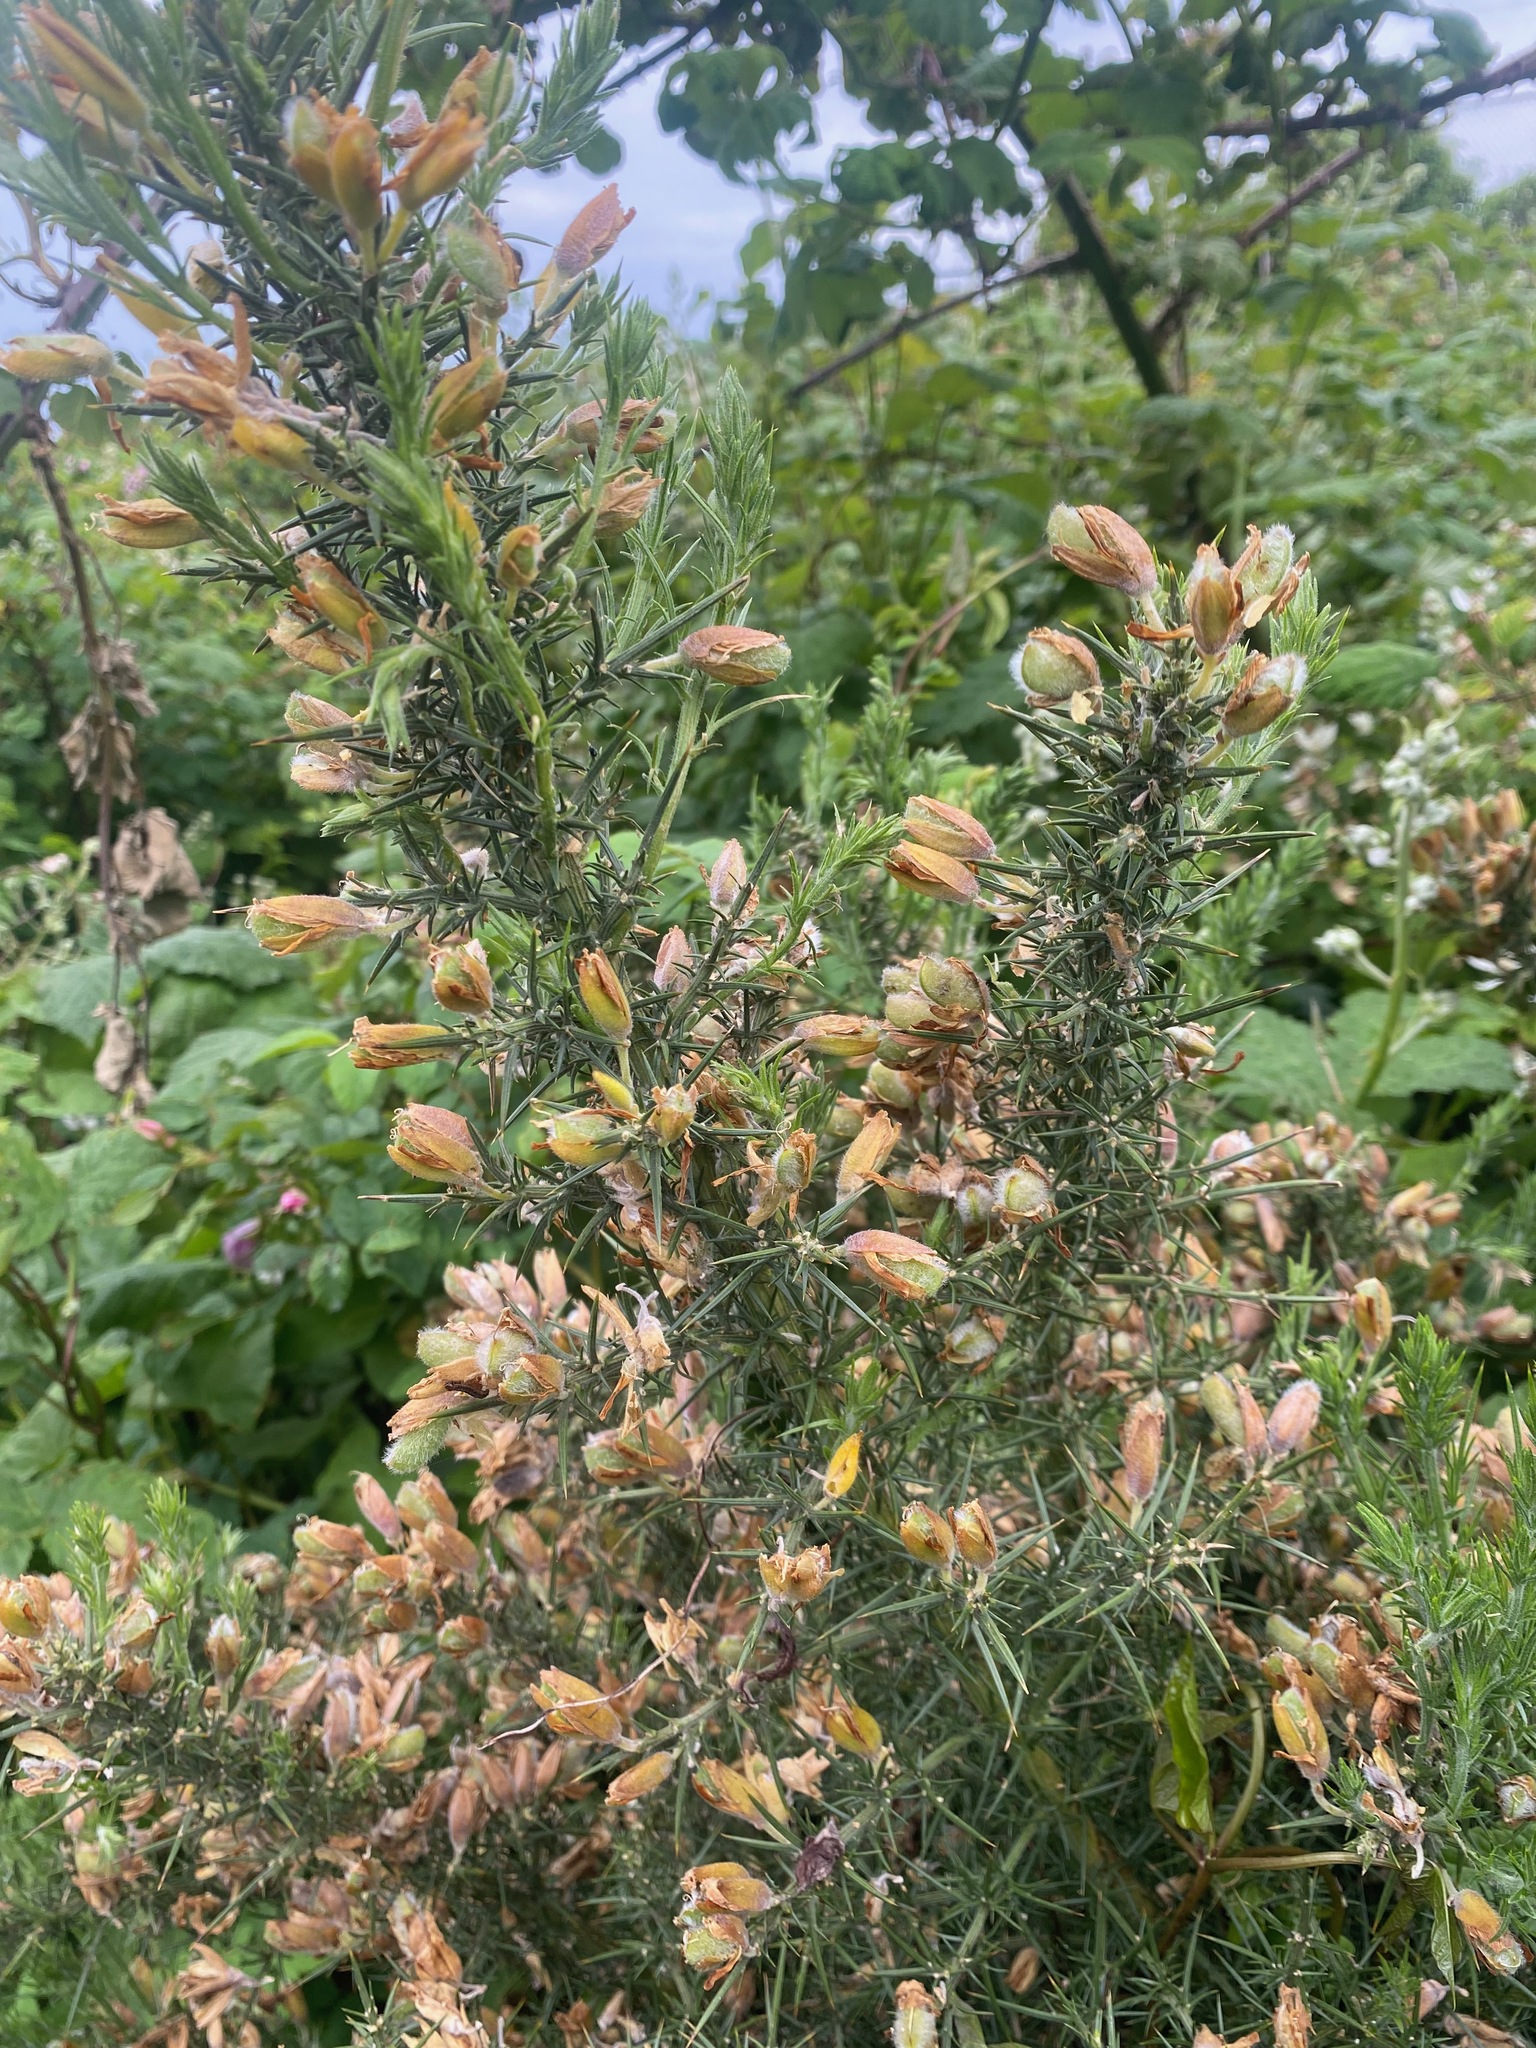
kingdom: Plantae
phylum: Tracheophyta
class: Magnoliopsida
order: Fabales
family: Fabaceae
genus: Ulex
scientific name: Ulex europaeus
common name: Common gorse
